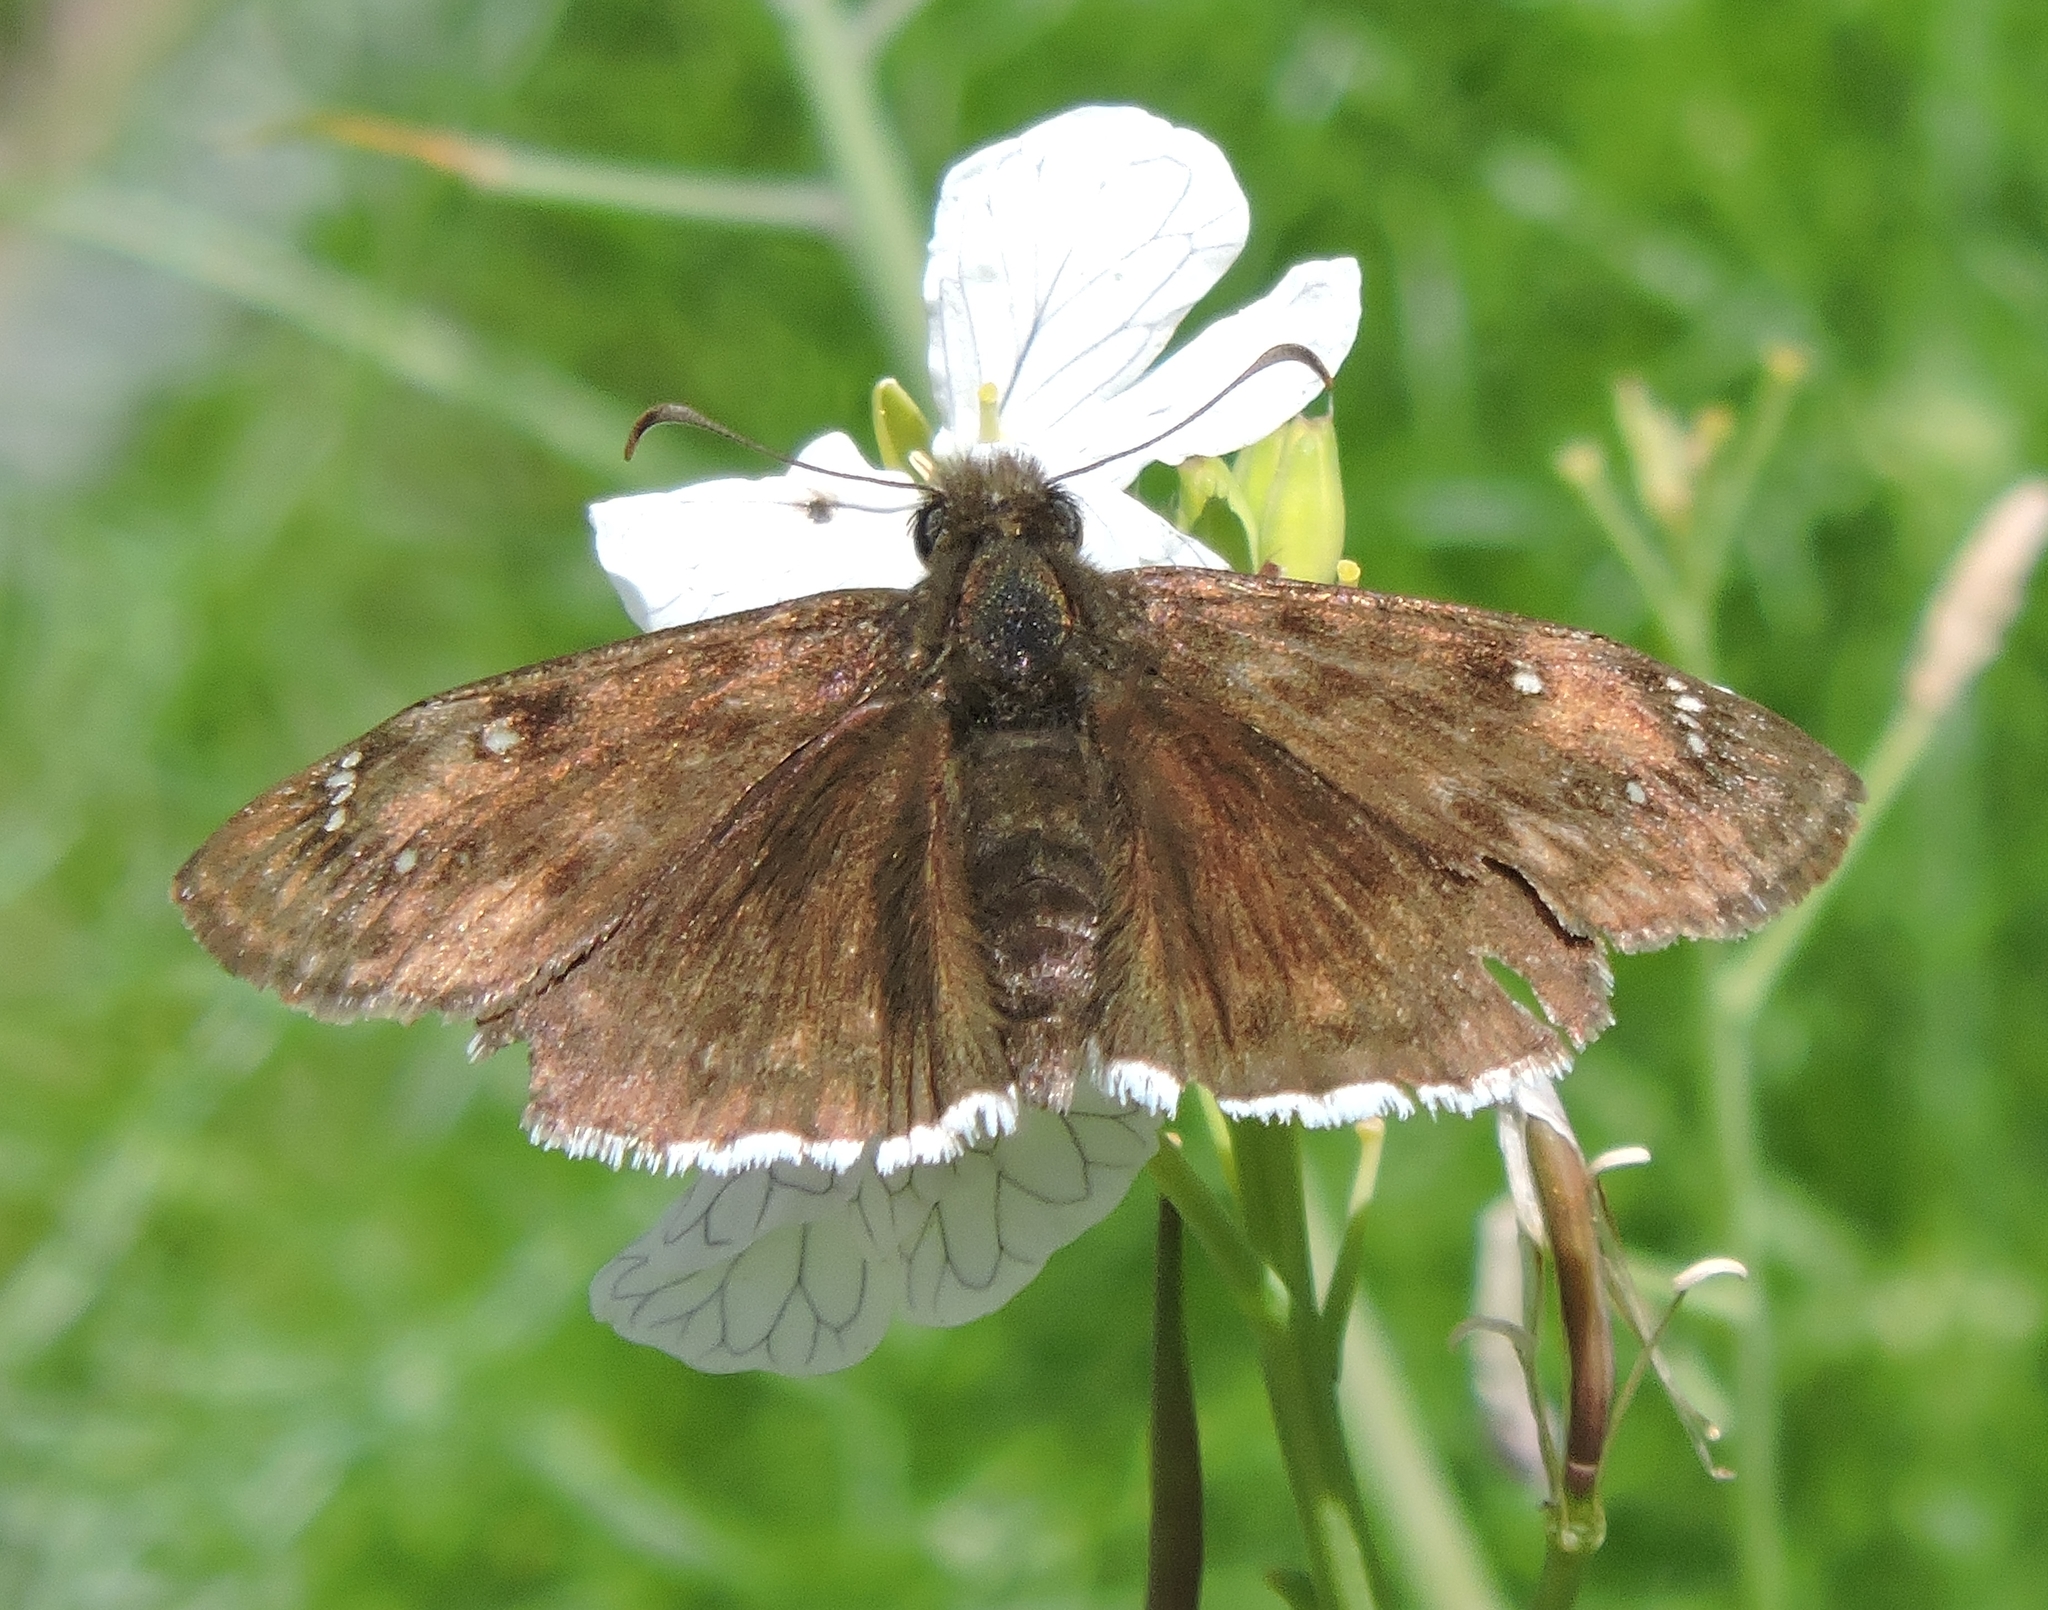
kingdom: Animalia
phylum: Arthropoda
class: Insecta
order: Lepidoptera
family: Hesperiidae
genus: Erynnis
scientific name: Erynnis tristis
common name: Mournful duskywing
